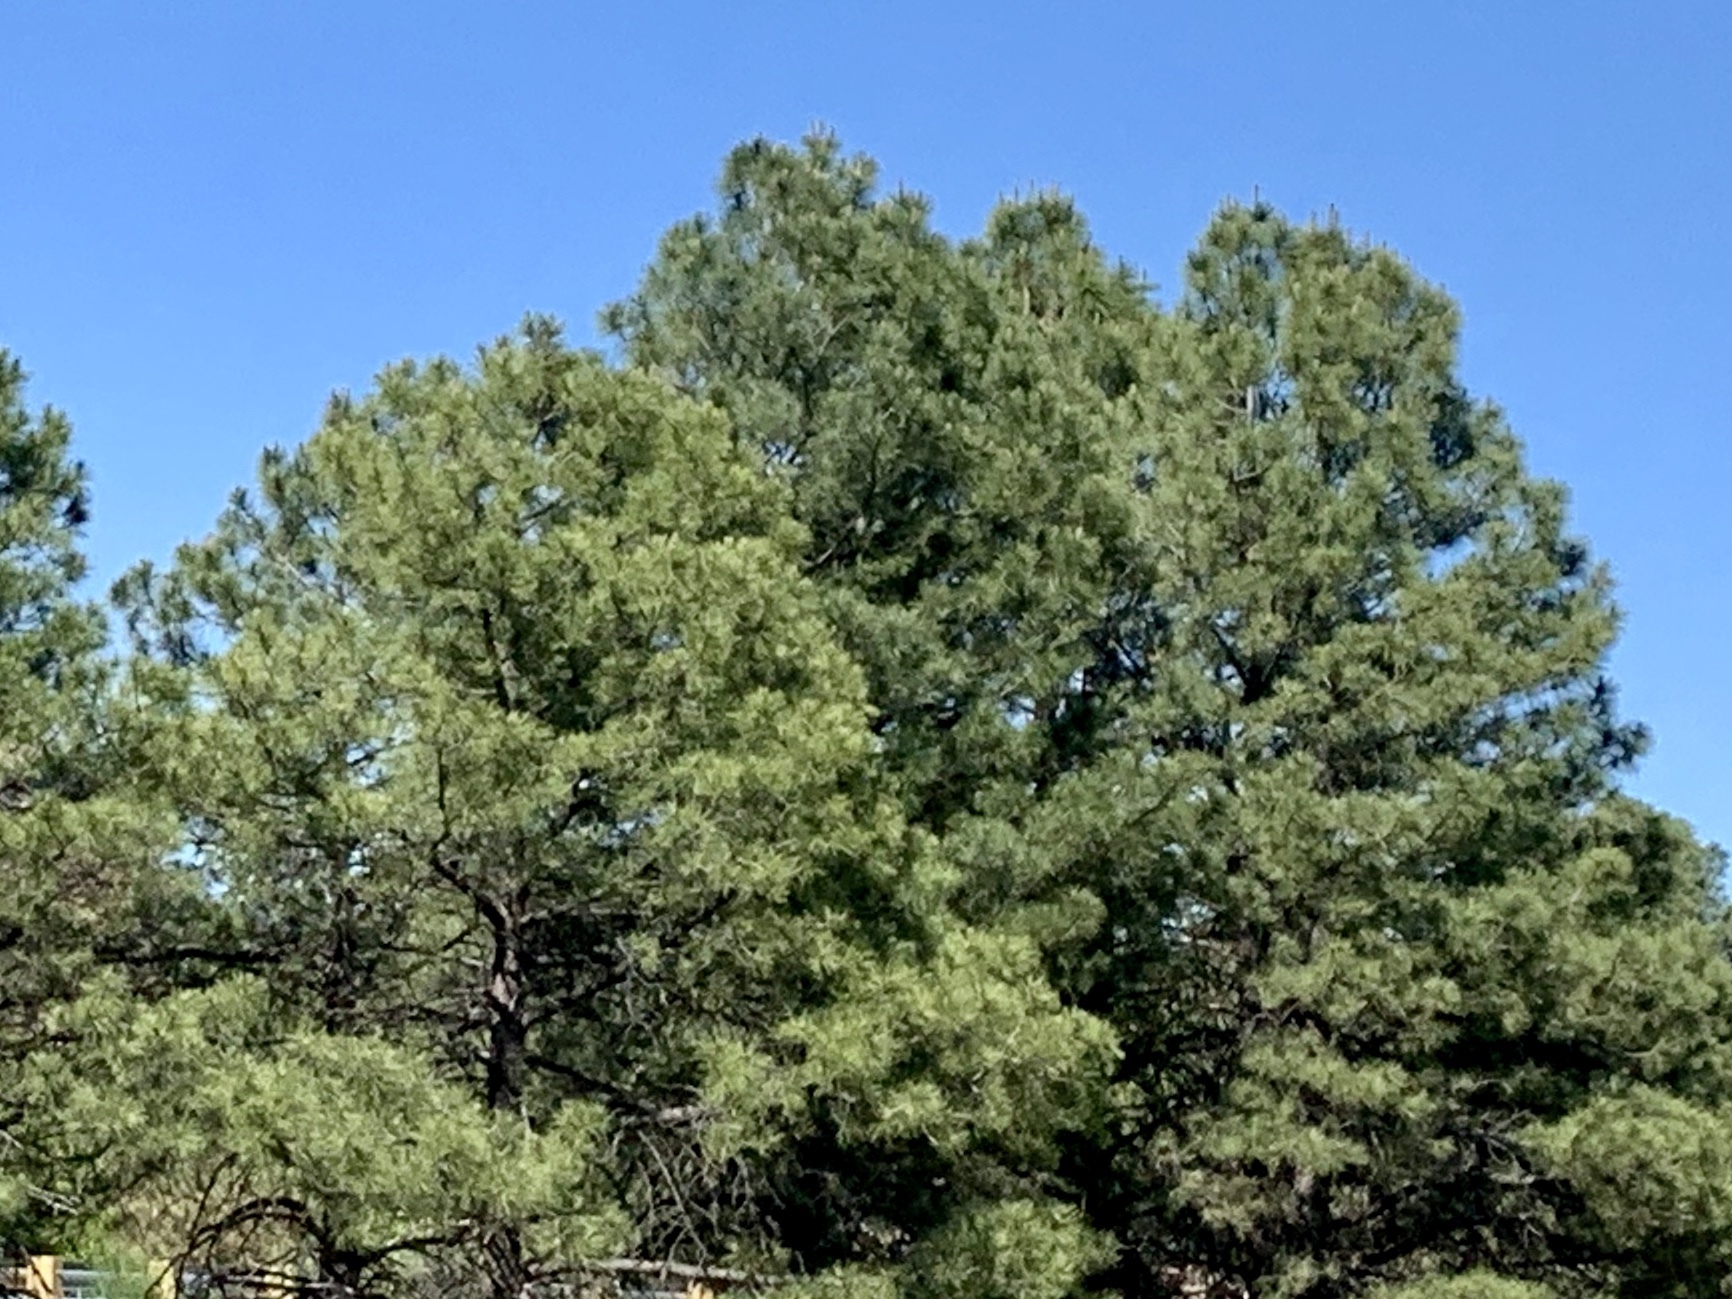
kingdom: Plantae
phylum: Tracheophyta
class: Pinopsida
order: Pinales
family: Pinaceae
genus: Pinus
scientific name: Pinus ponderosa
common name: Western yellow-pine
